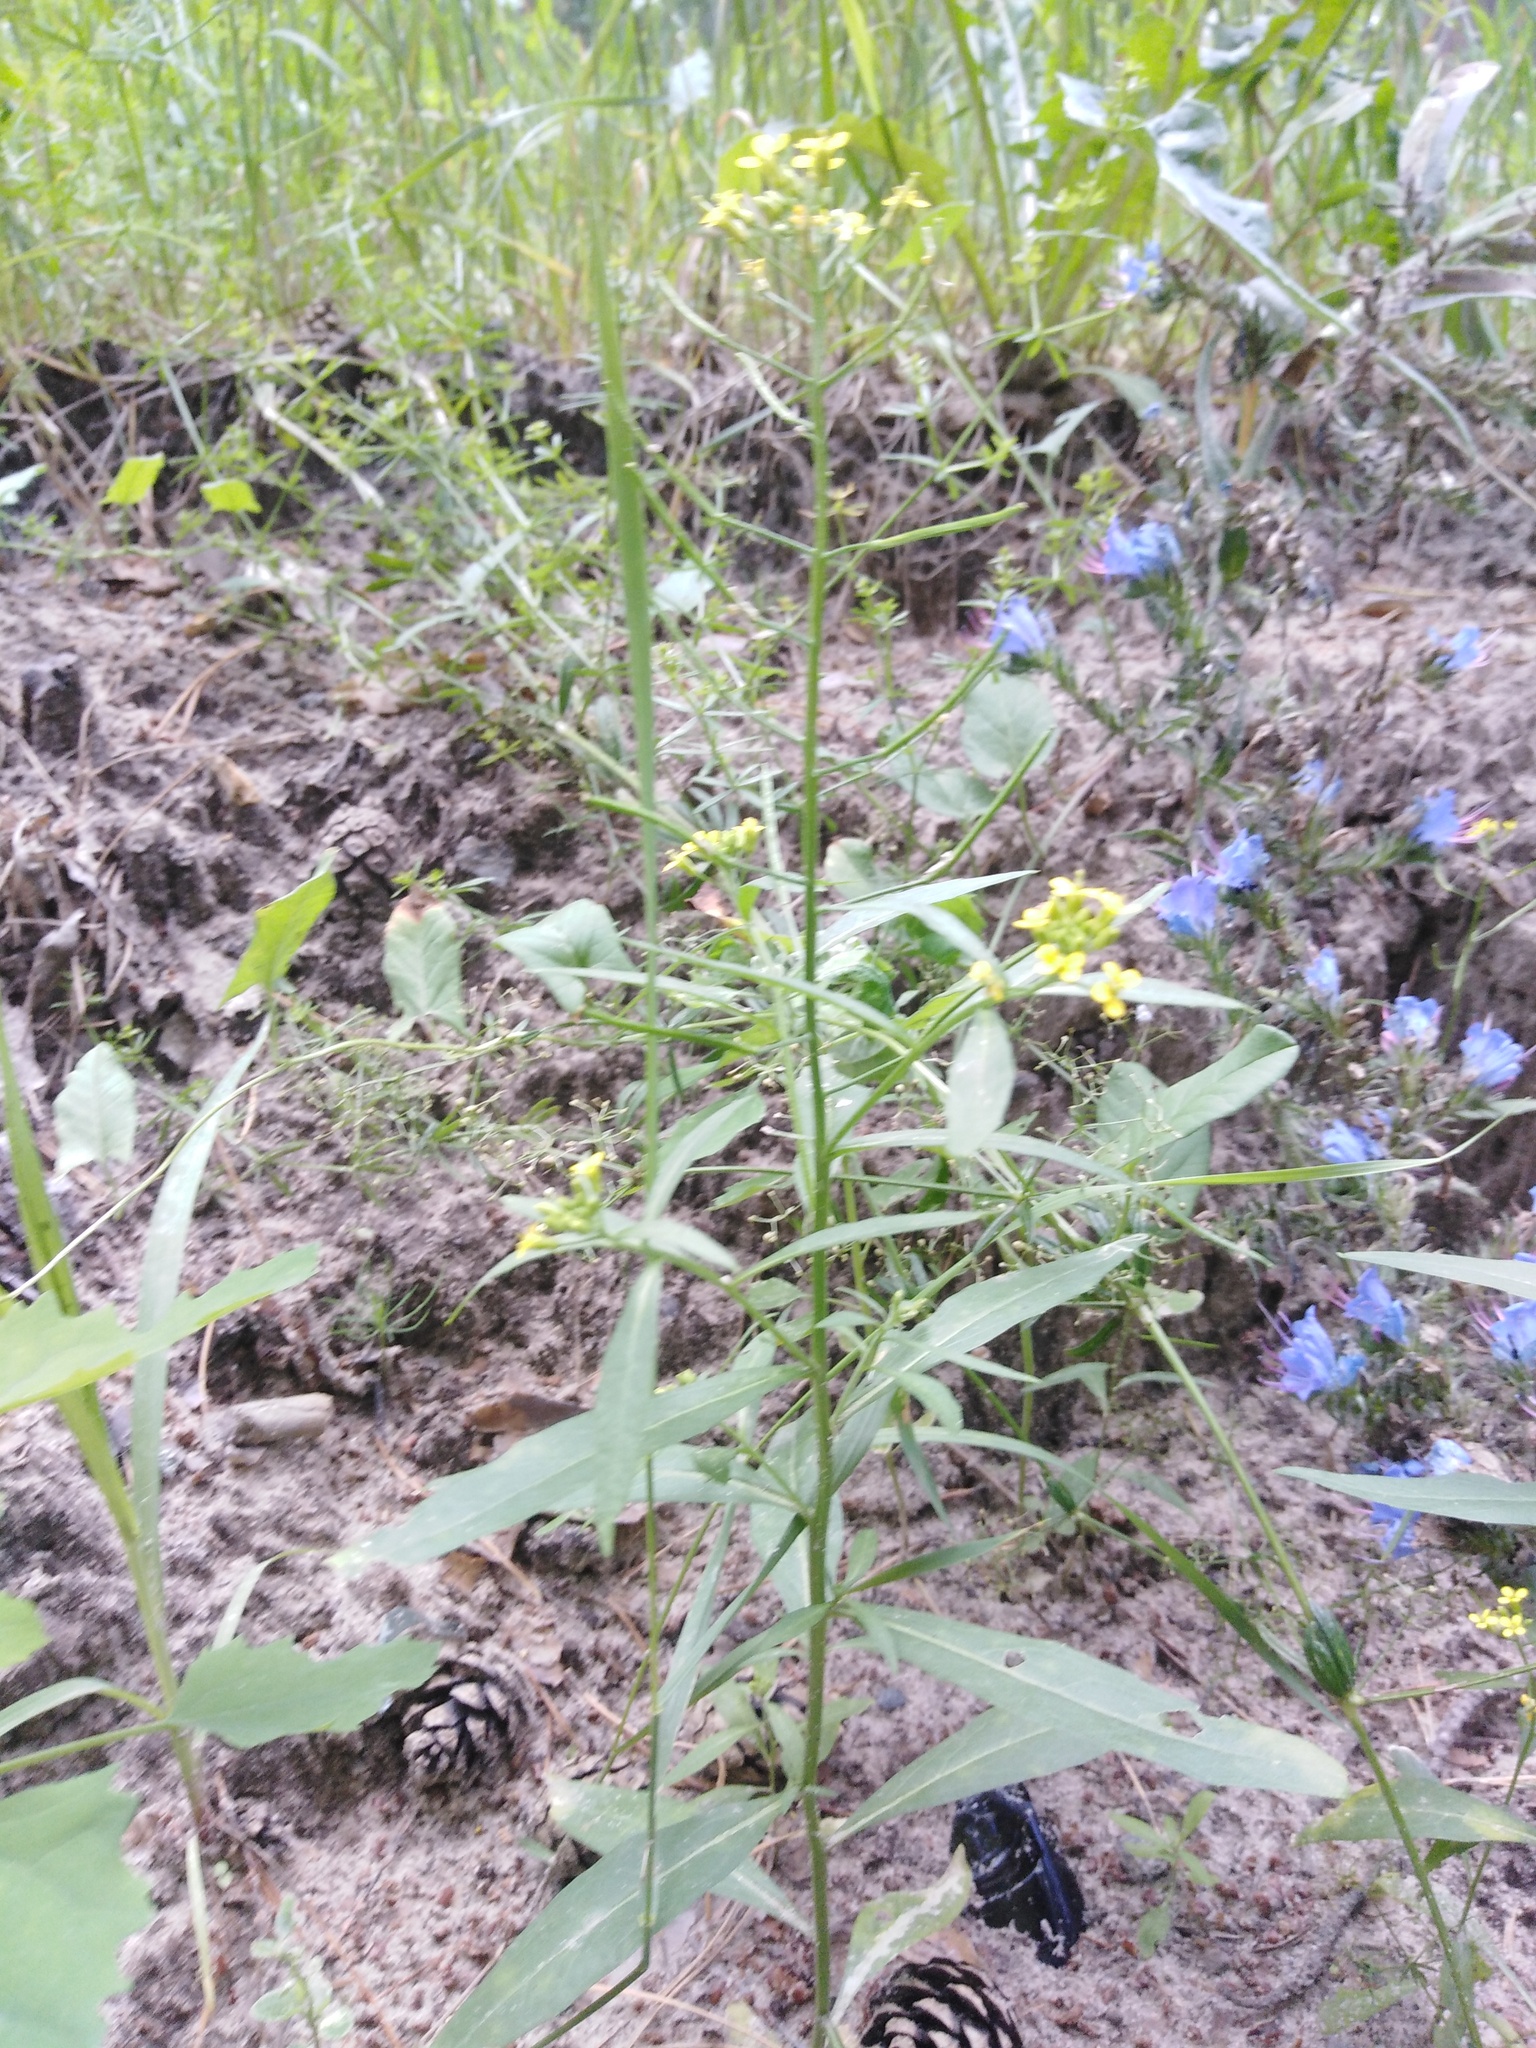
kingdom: Plantae
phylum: Tracheophyta
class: Magnoliopsida
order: Brassicales
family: Brassicaceae
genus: Erysimum
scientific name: Erysimum cheiranthoides
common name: Treacle mustard
